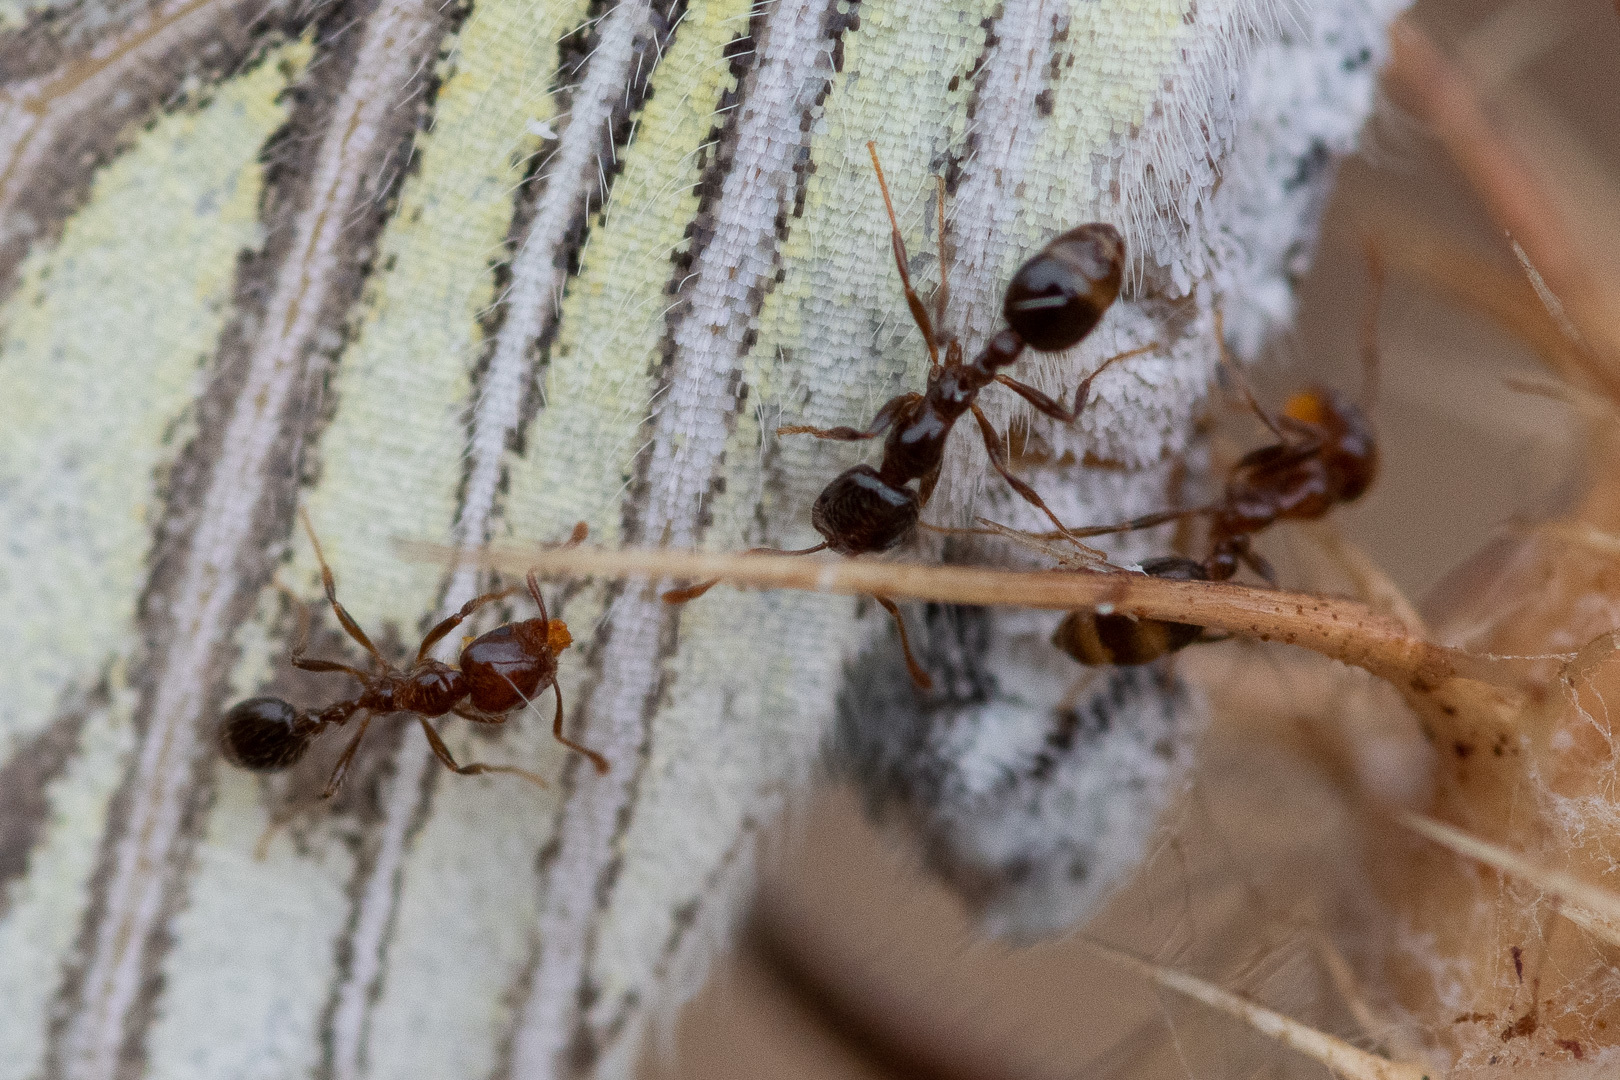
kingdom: Animalia
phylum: Arthropoda
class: Insecta
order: Hymenoptera
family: Formicidae
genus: Solenopsis
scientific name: Solenopsis gayi
